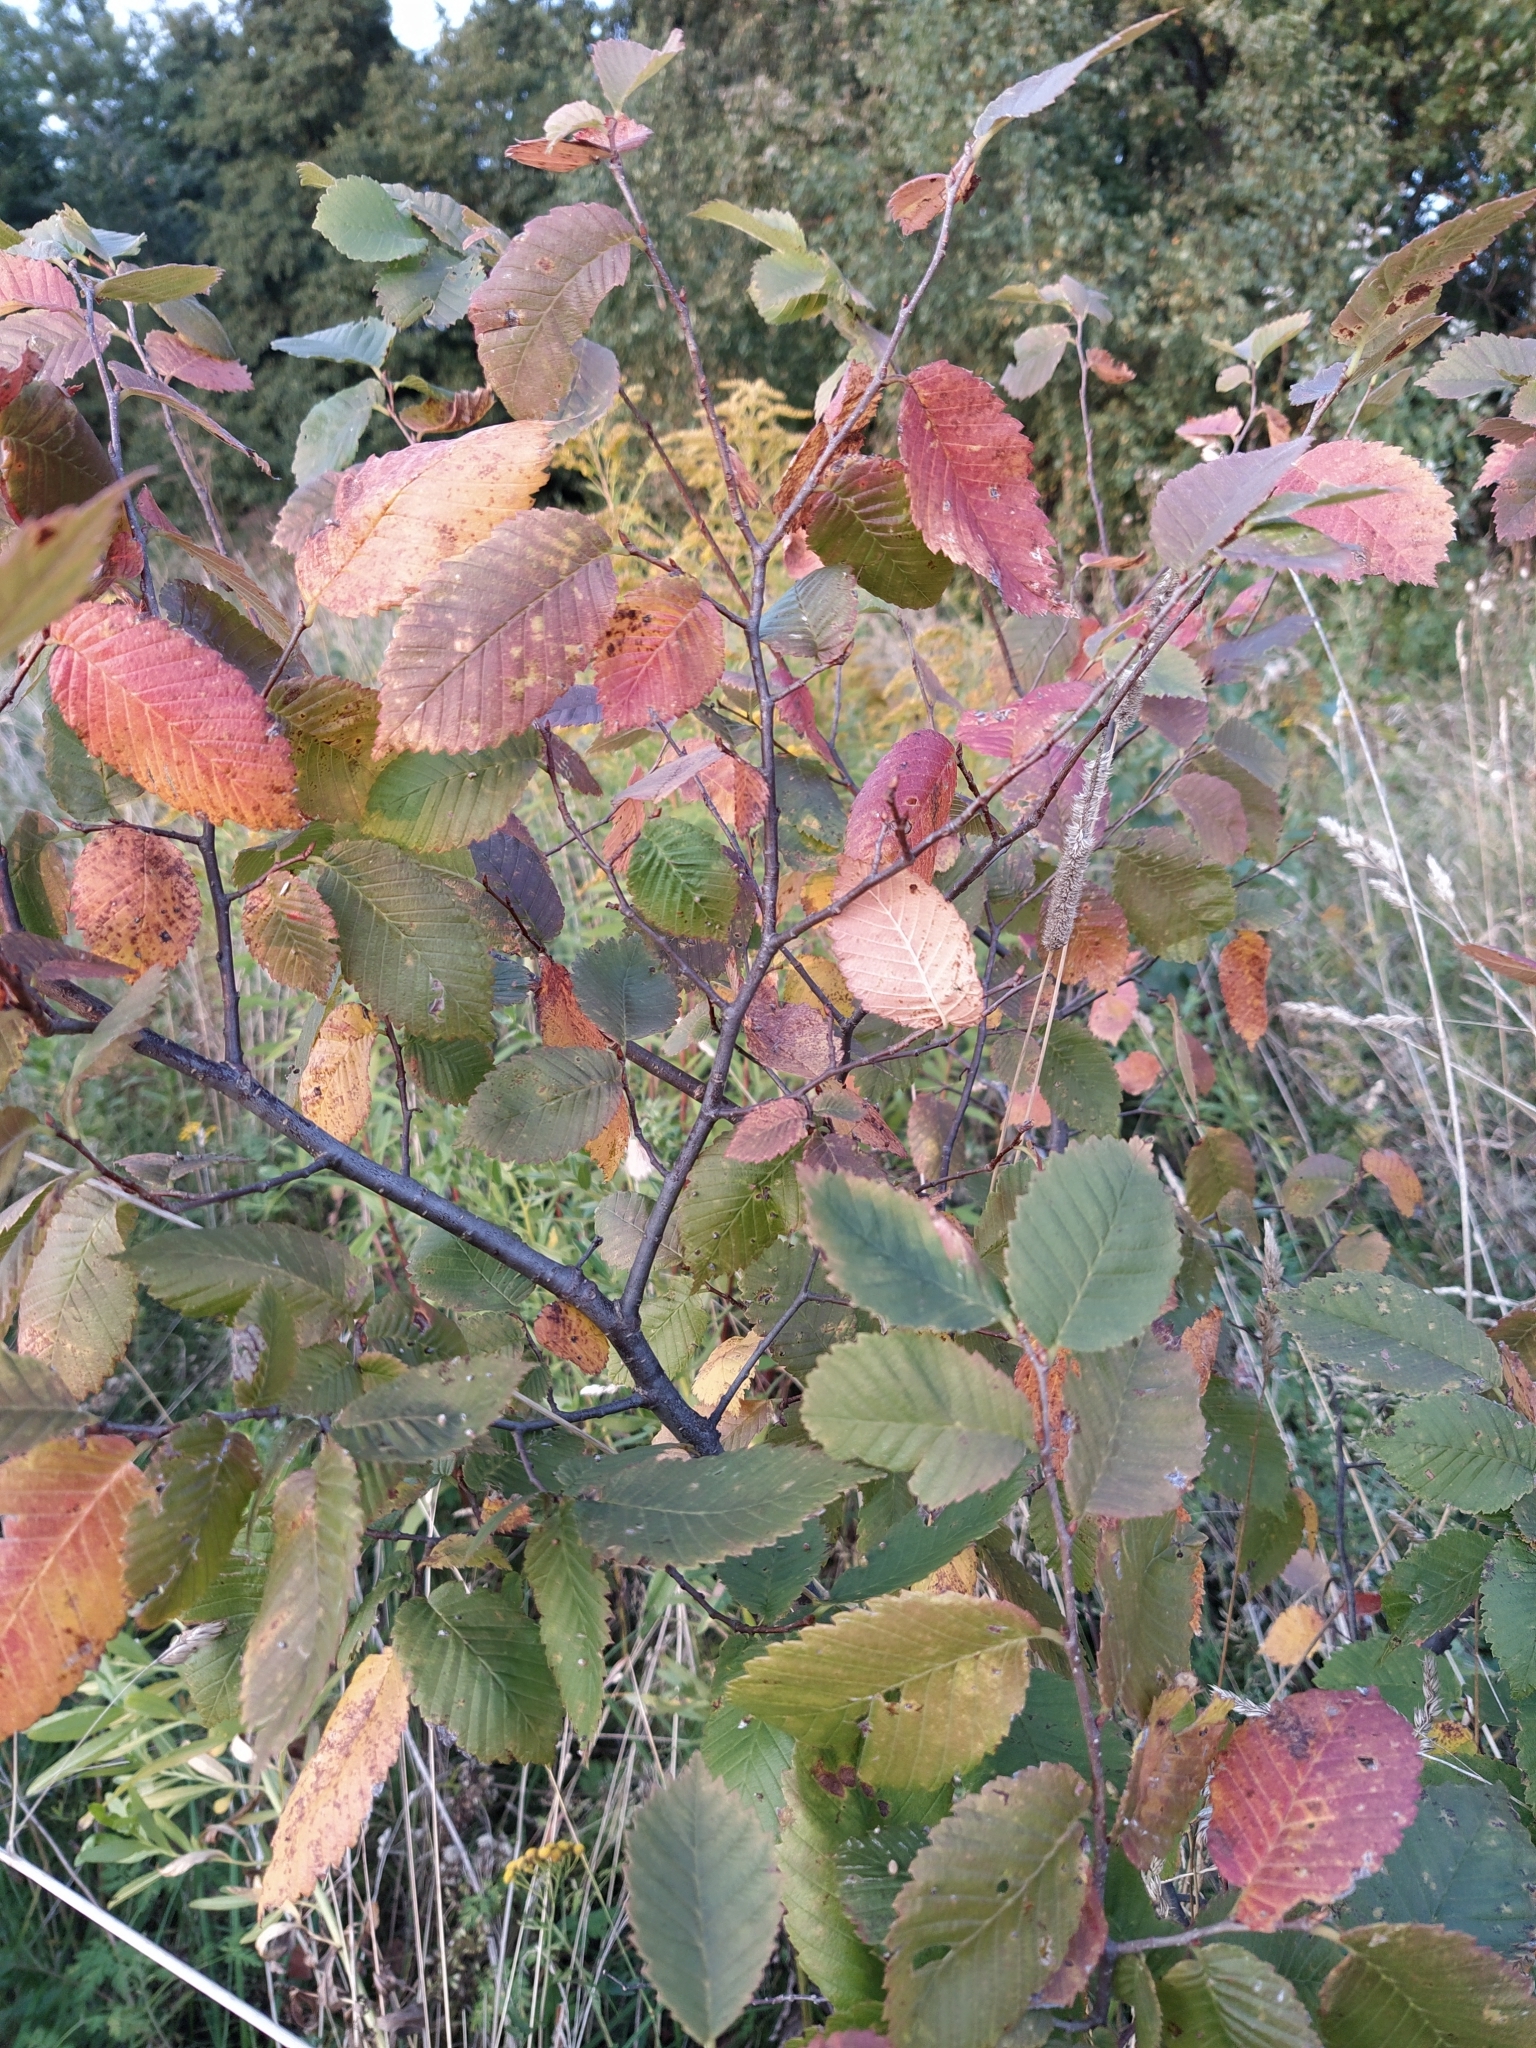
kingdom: Plantae
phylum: Tracheophyta
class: Magnoliopsida
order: Rosales
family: Ulmaceae
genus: Ulmus
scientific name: Ulmus laevis
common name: European white-elm
